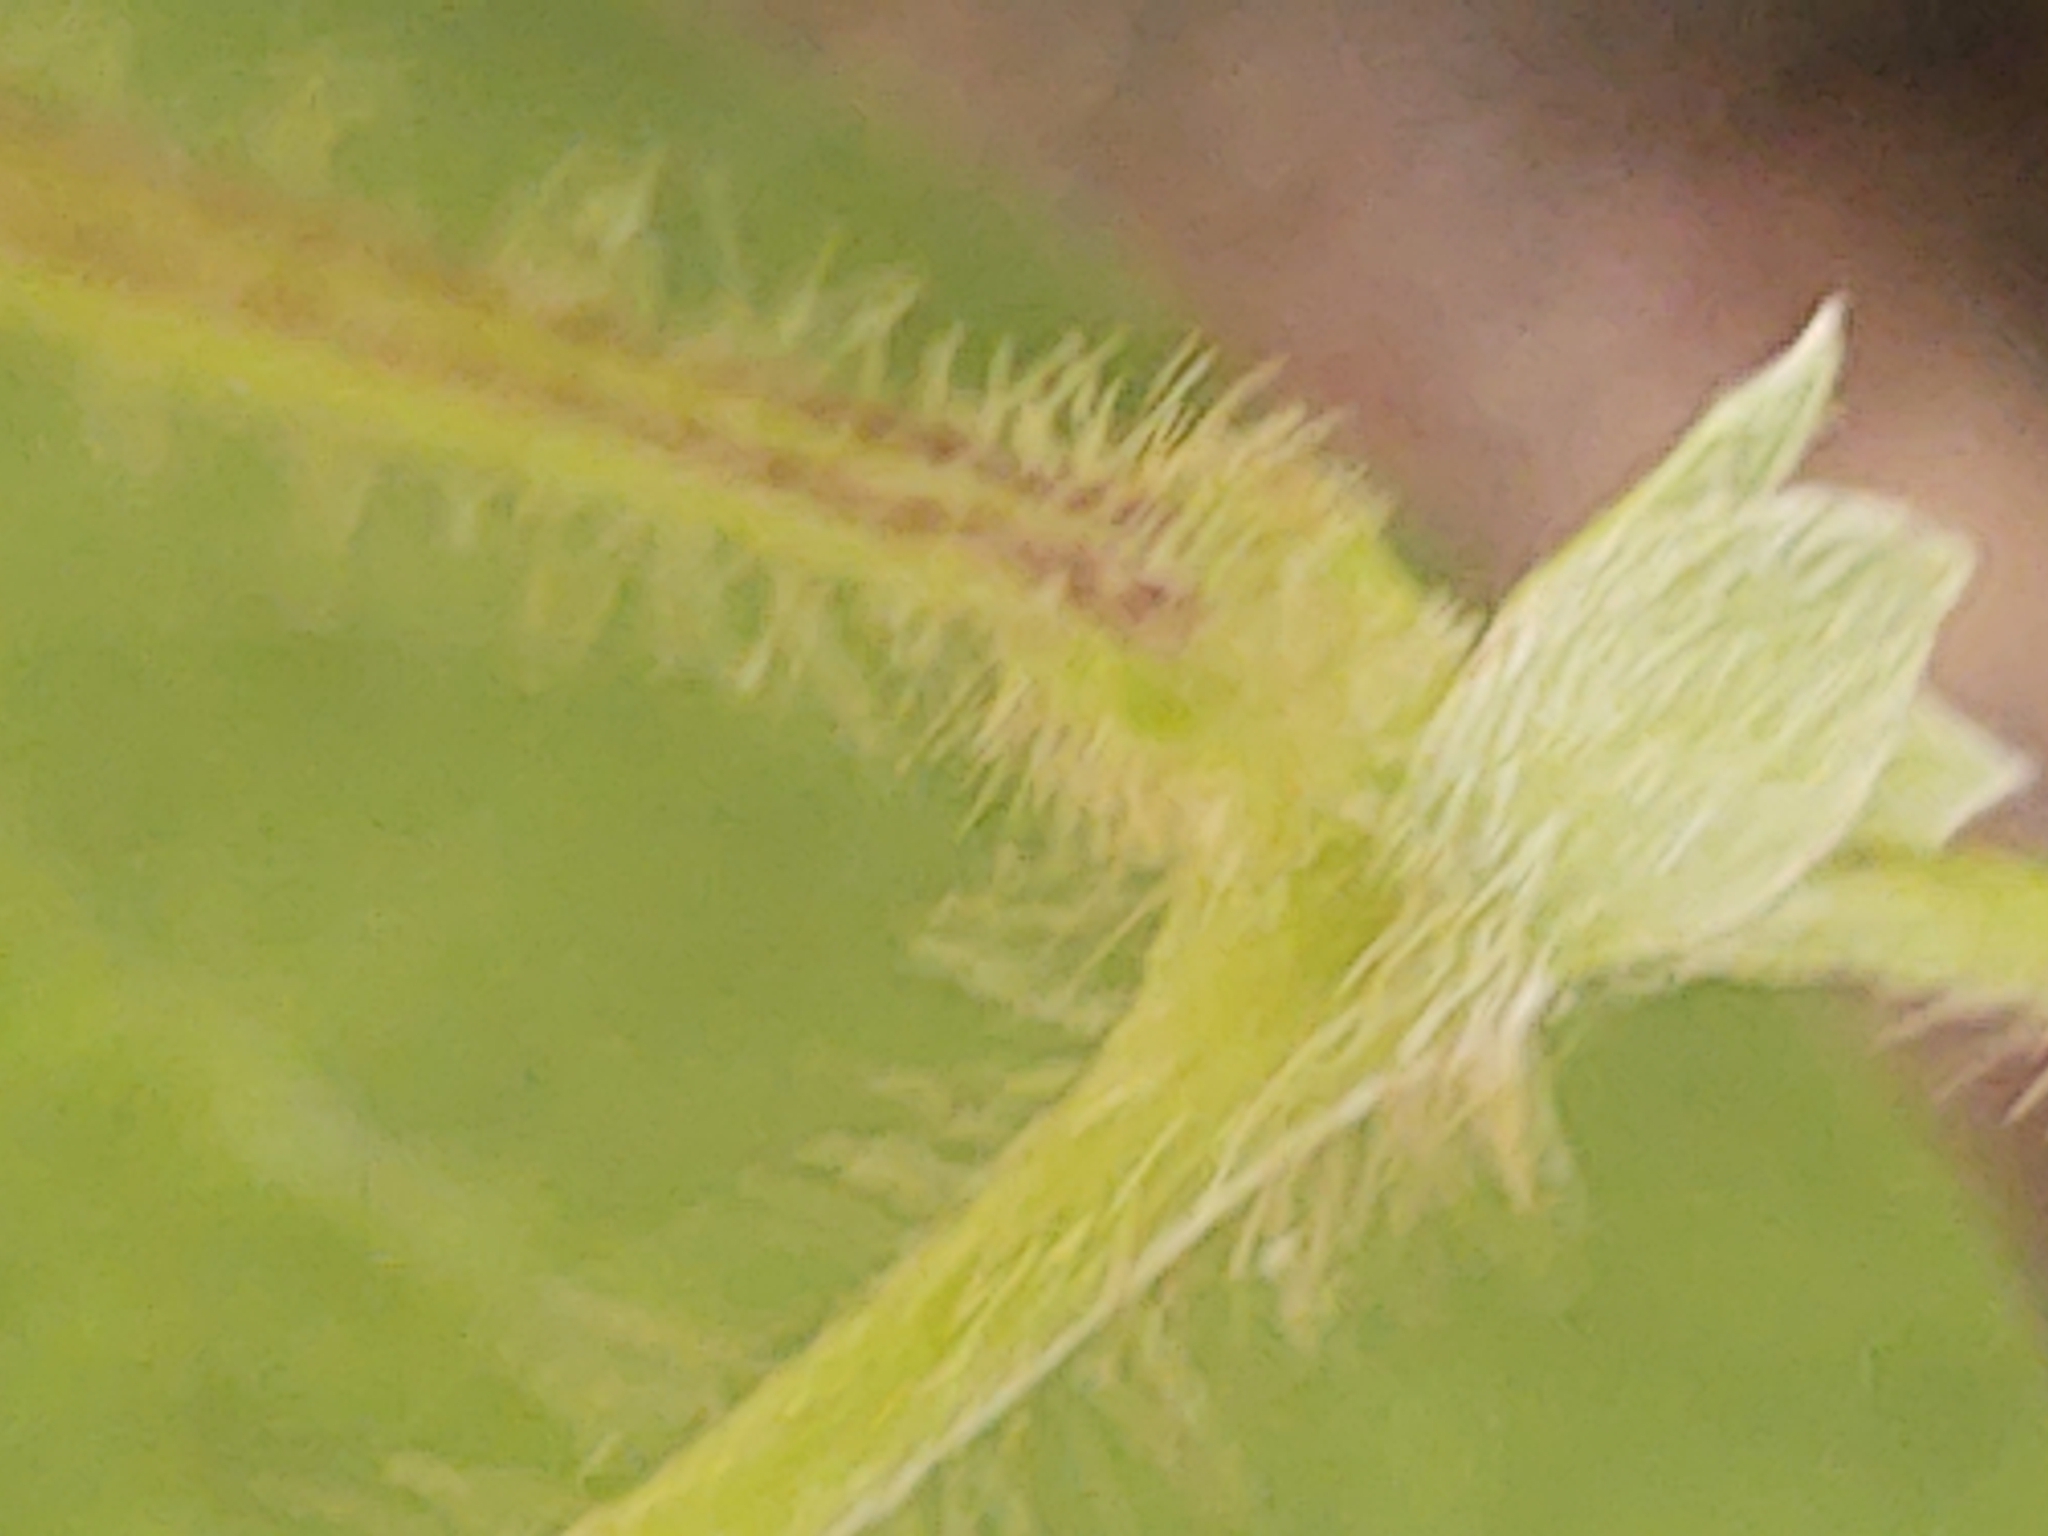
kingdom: Plantae
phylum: Tracheophyta
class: Magnoliopsida
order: Dipsacales
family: Caprifoliaceae
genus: Lonicera
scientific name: Lonicera japonica
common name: Japanese honeysuckle
